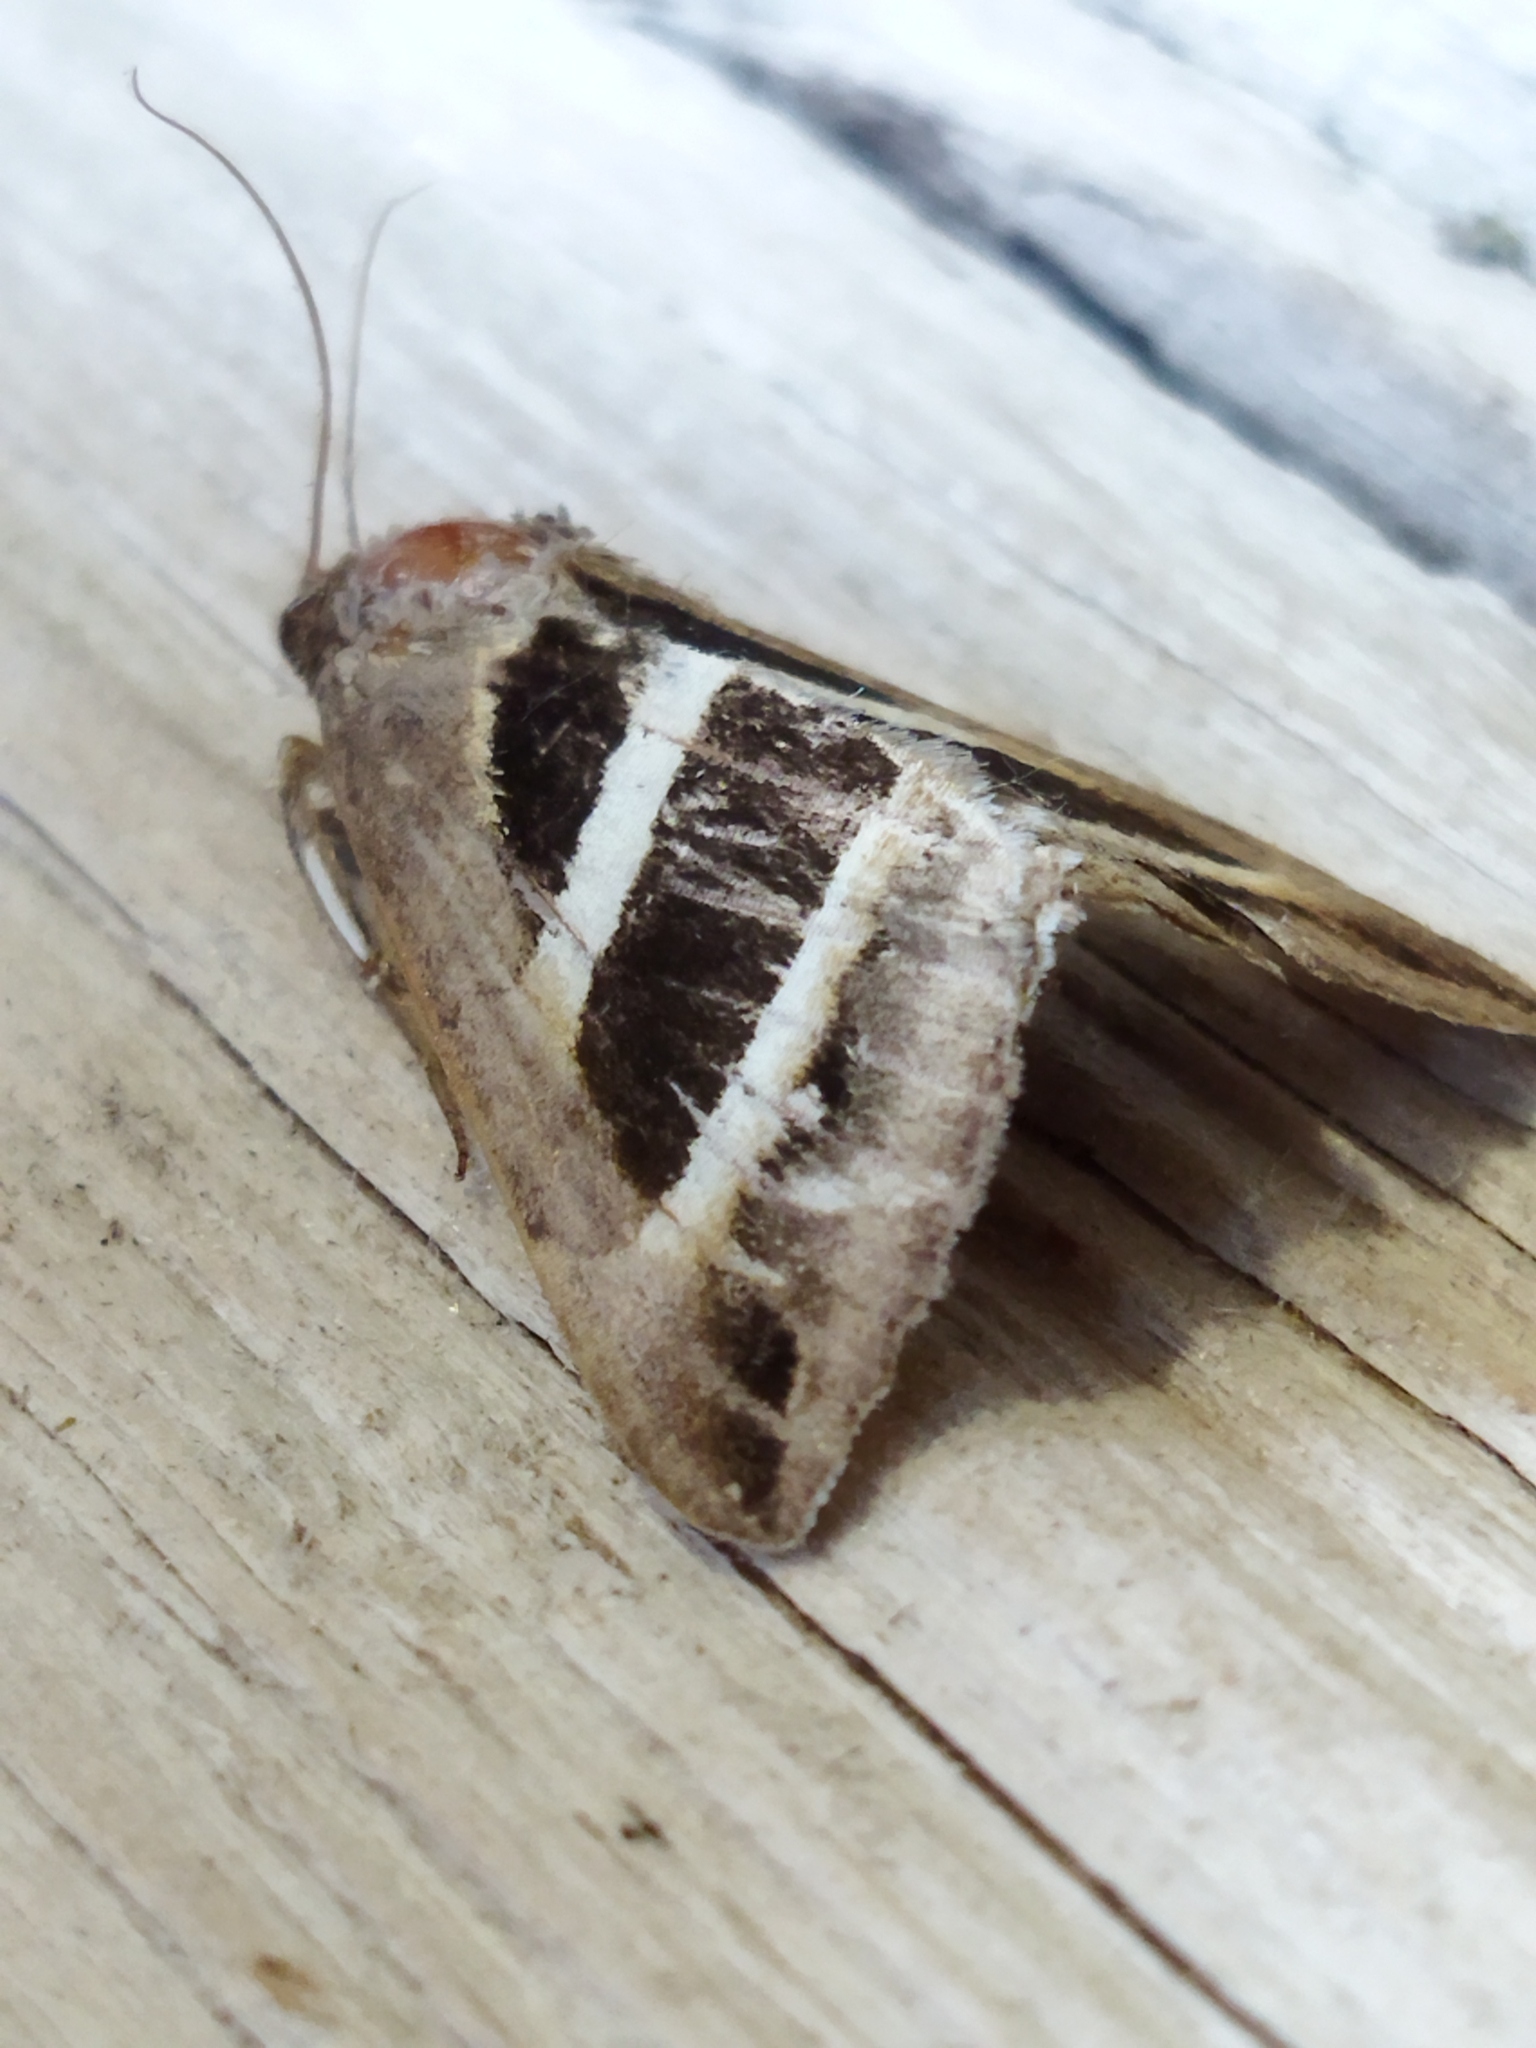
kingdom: Animalia
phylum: Arthropoda
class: Insecta
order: Lepidoptera
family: Erebidae
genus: Grammodes
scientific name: Grammodes bifasciata
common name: Parallel lines
